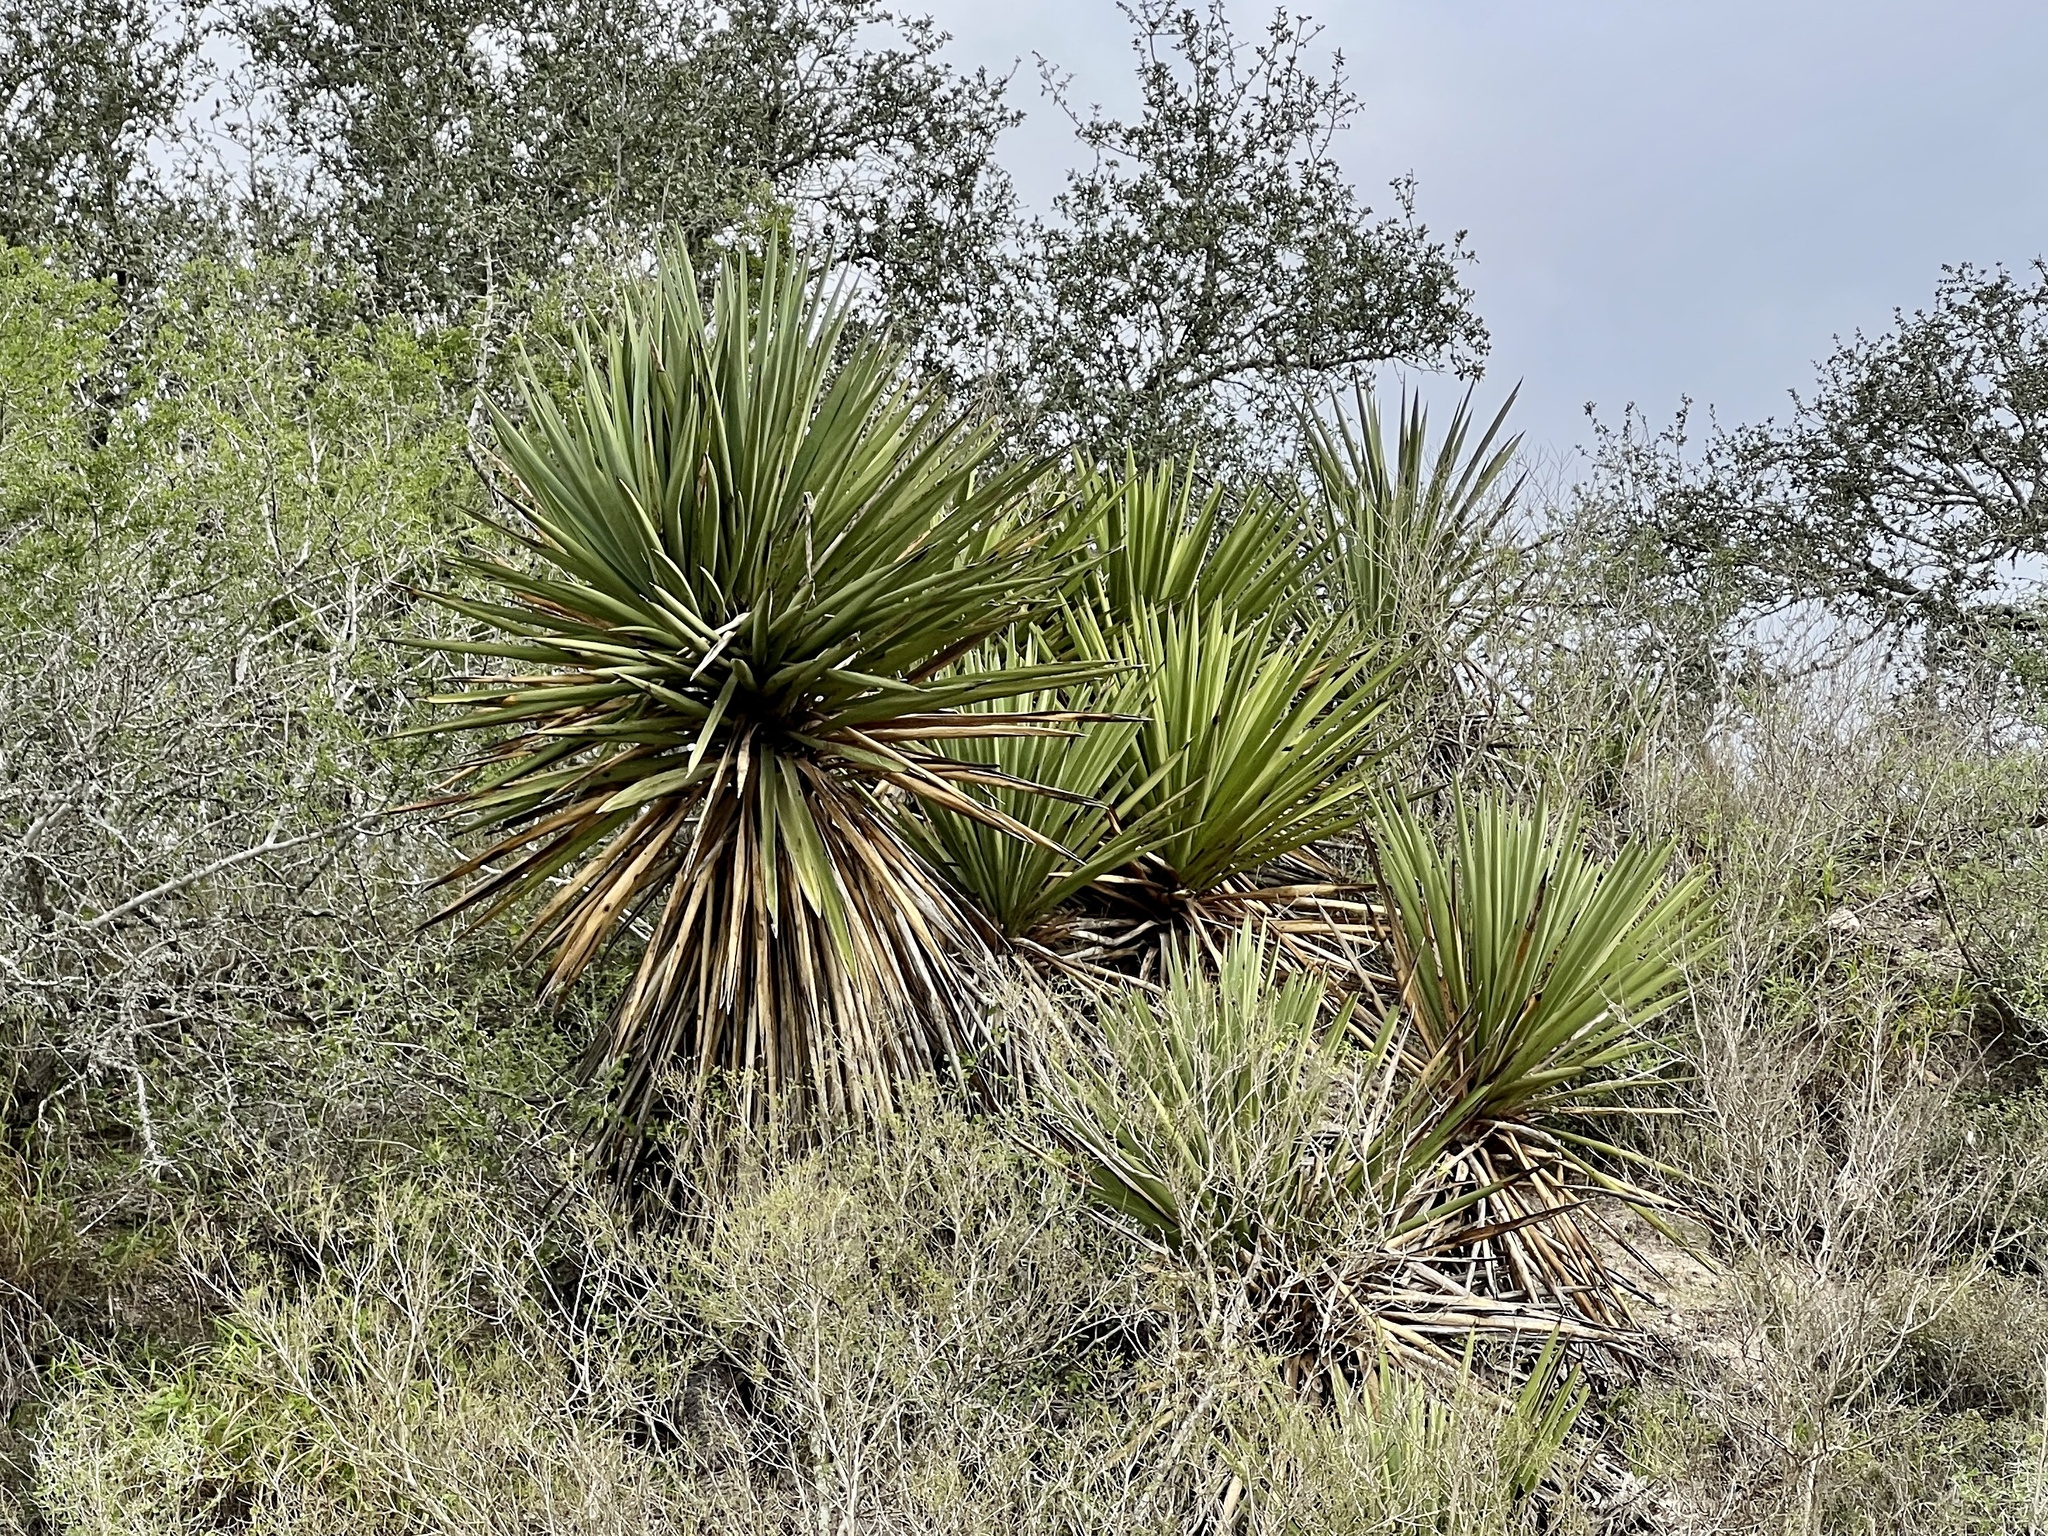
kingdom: Plantae
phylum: Tracheophyta
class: Liliopsida
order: Asparagales
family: Asparagaceae
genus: Yucca
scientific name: Yucca treculiana
